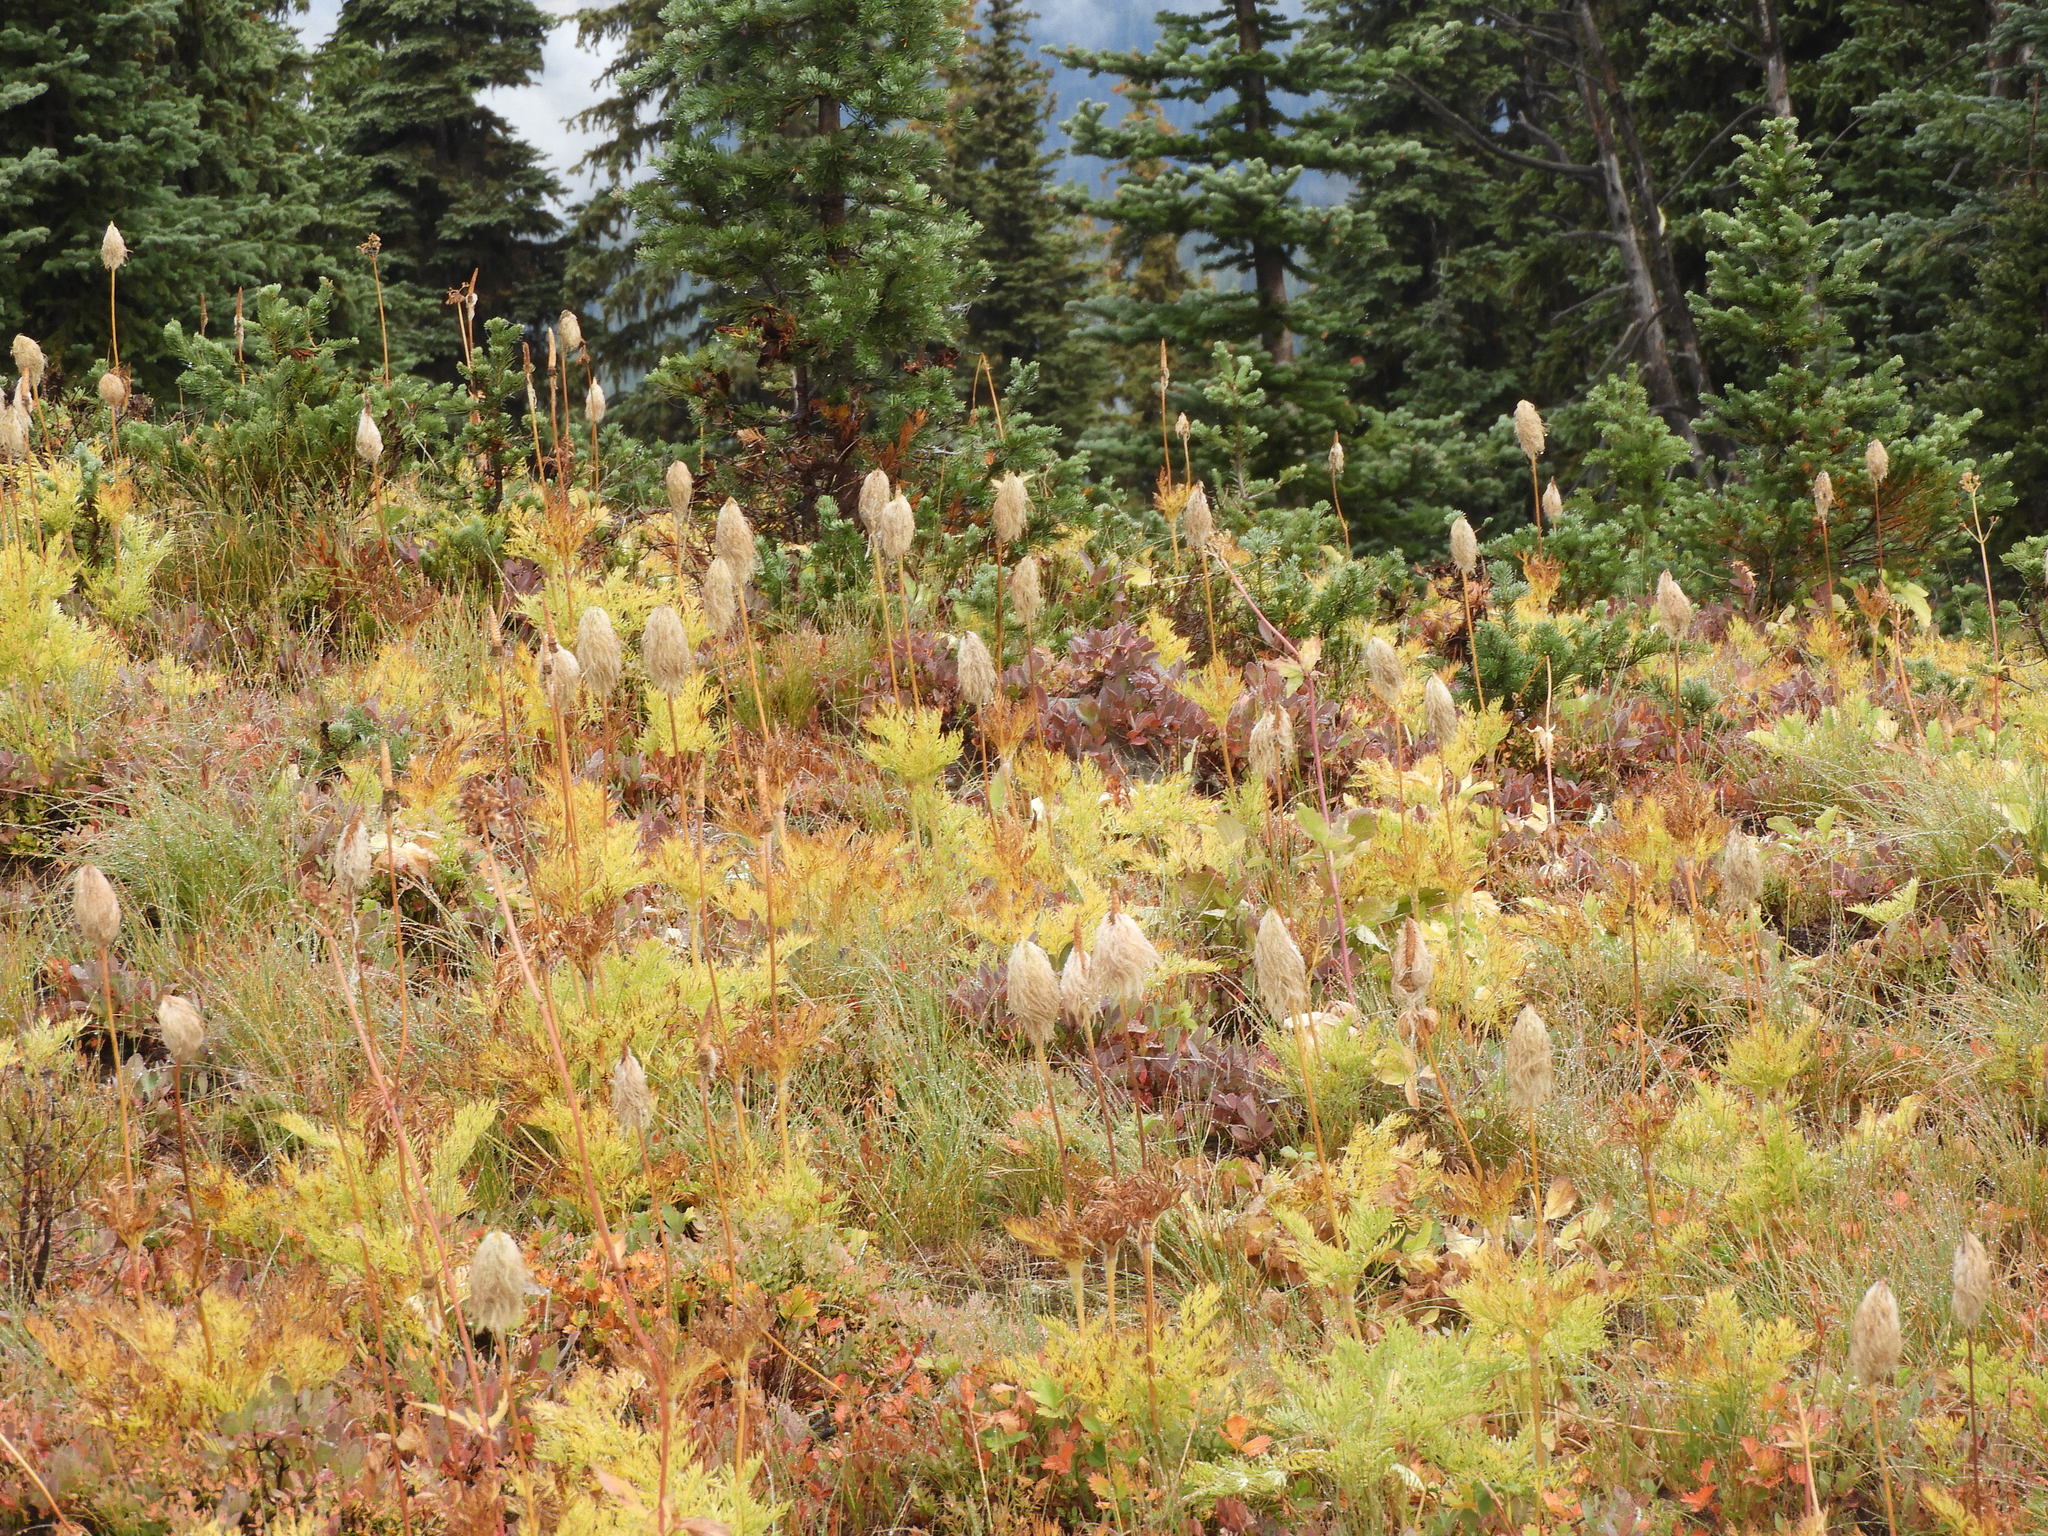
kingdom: Plantae
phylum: Tracheophyta
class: Magnoliopsida
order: Ranunculales
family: Ranunculaceae
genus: Pulsatilla
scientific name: Pulsatilla occidentalis
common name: Mountain pasqueflower
